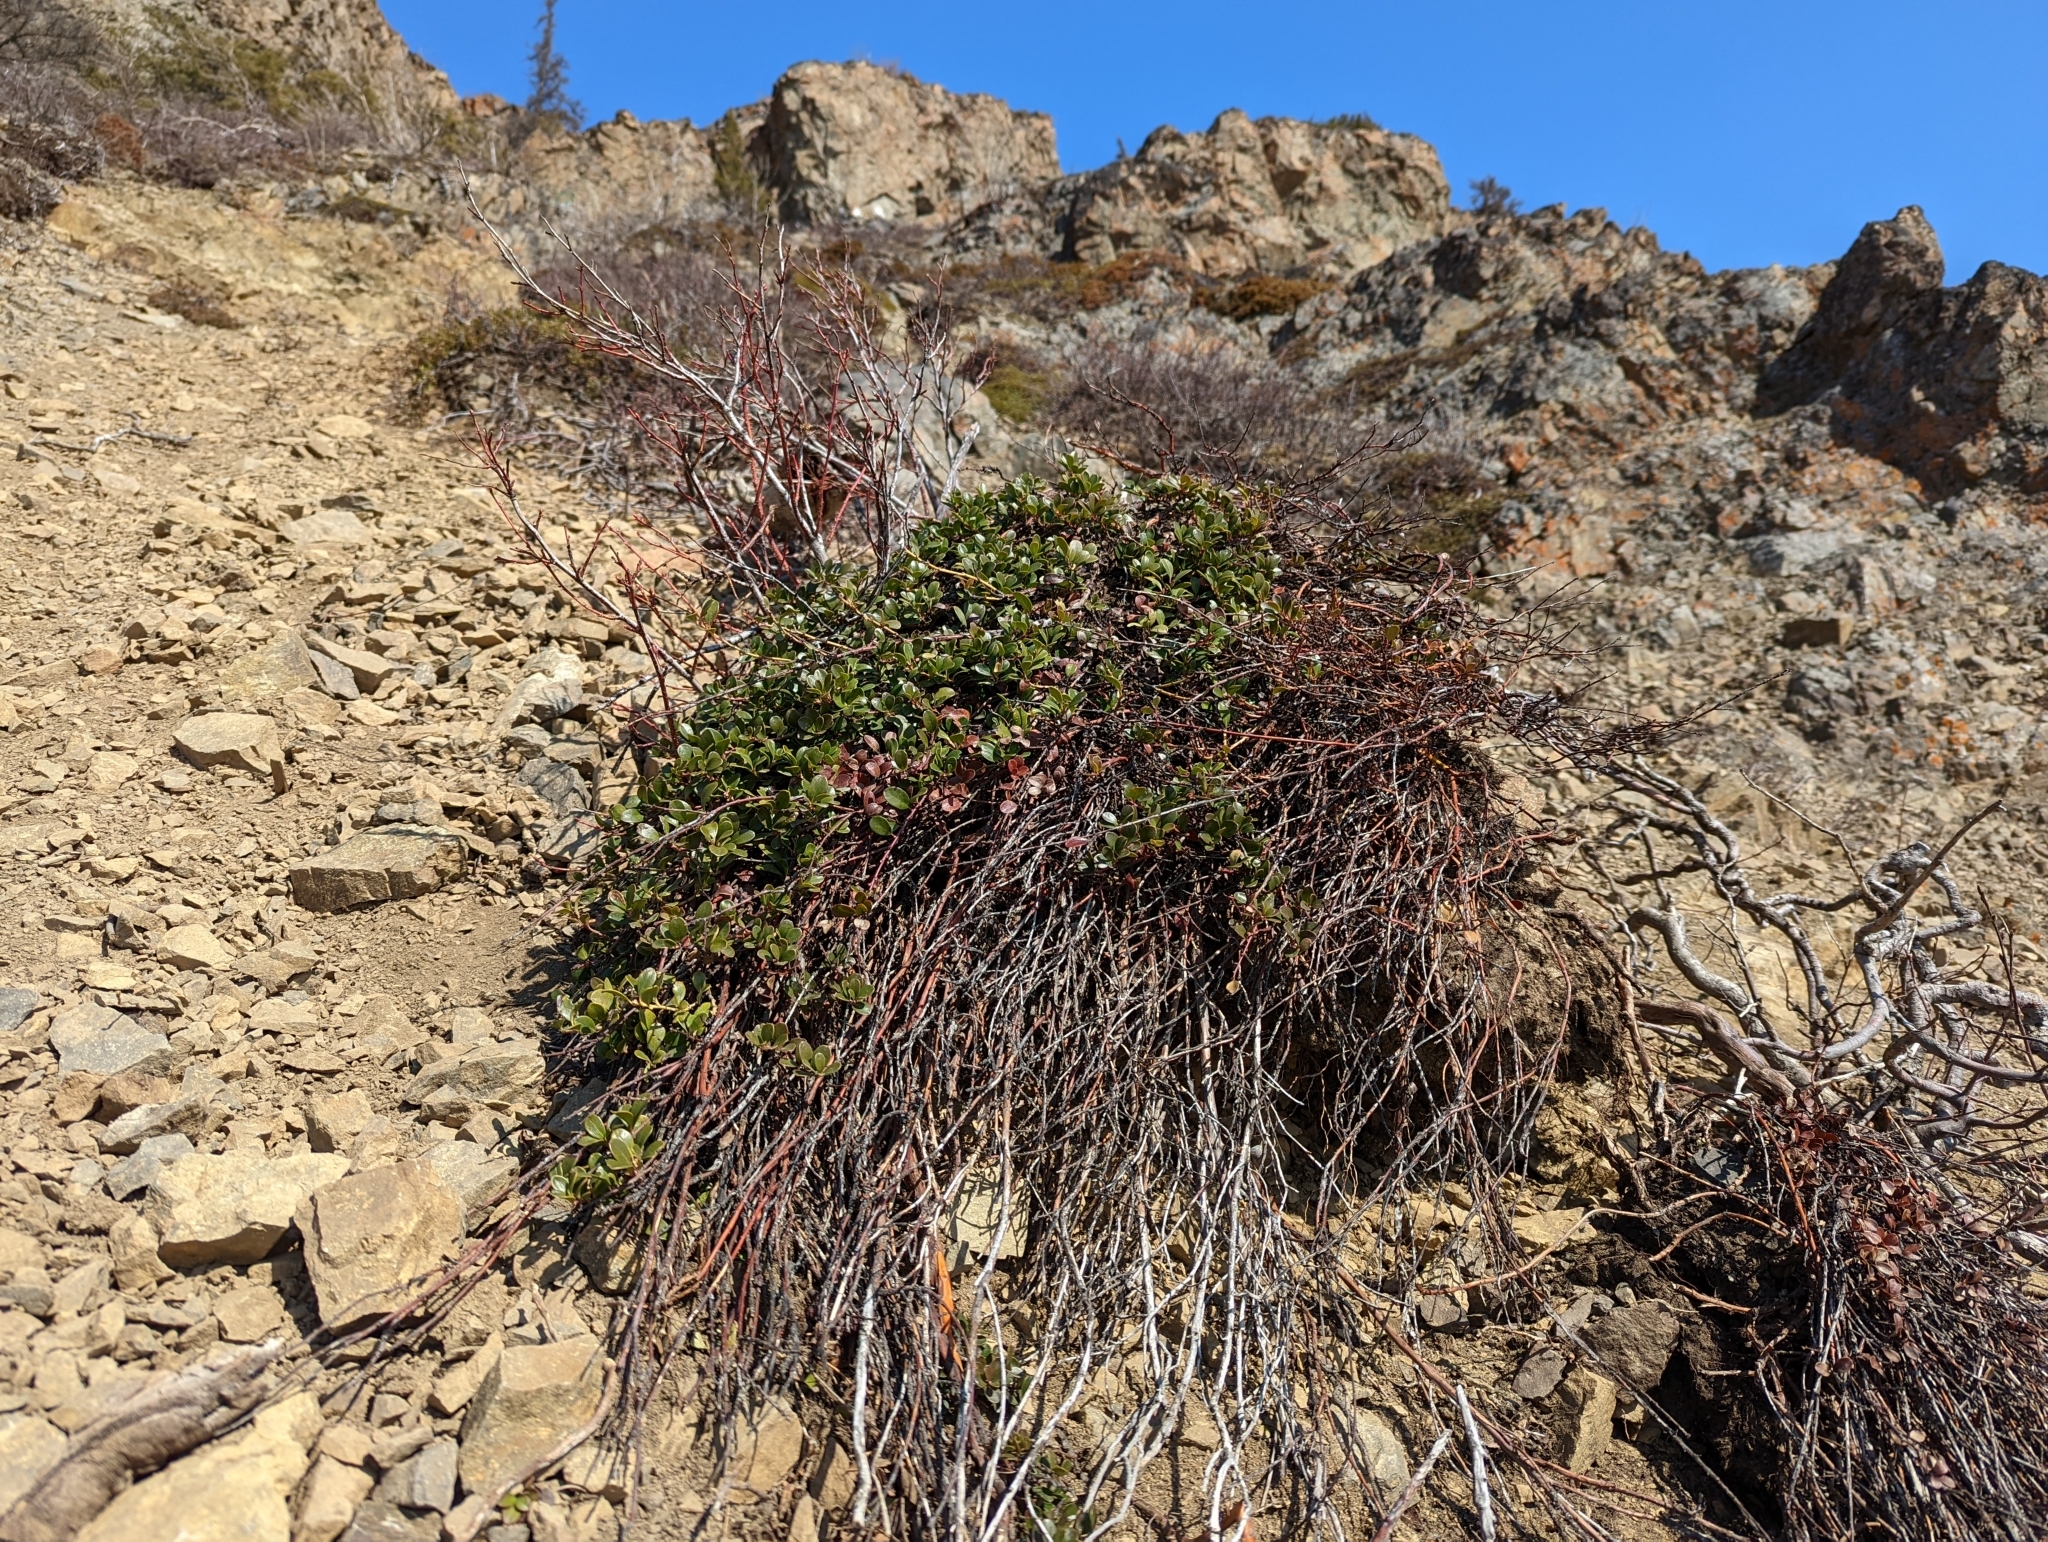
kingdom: Plantae
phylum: Tracheophyta
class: Magnoliopsida
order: Ericales
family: Ericaceae
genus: Arctostaphylos
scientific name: Arctostaphylos uva-ursi
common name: Bearberry
